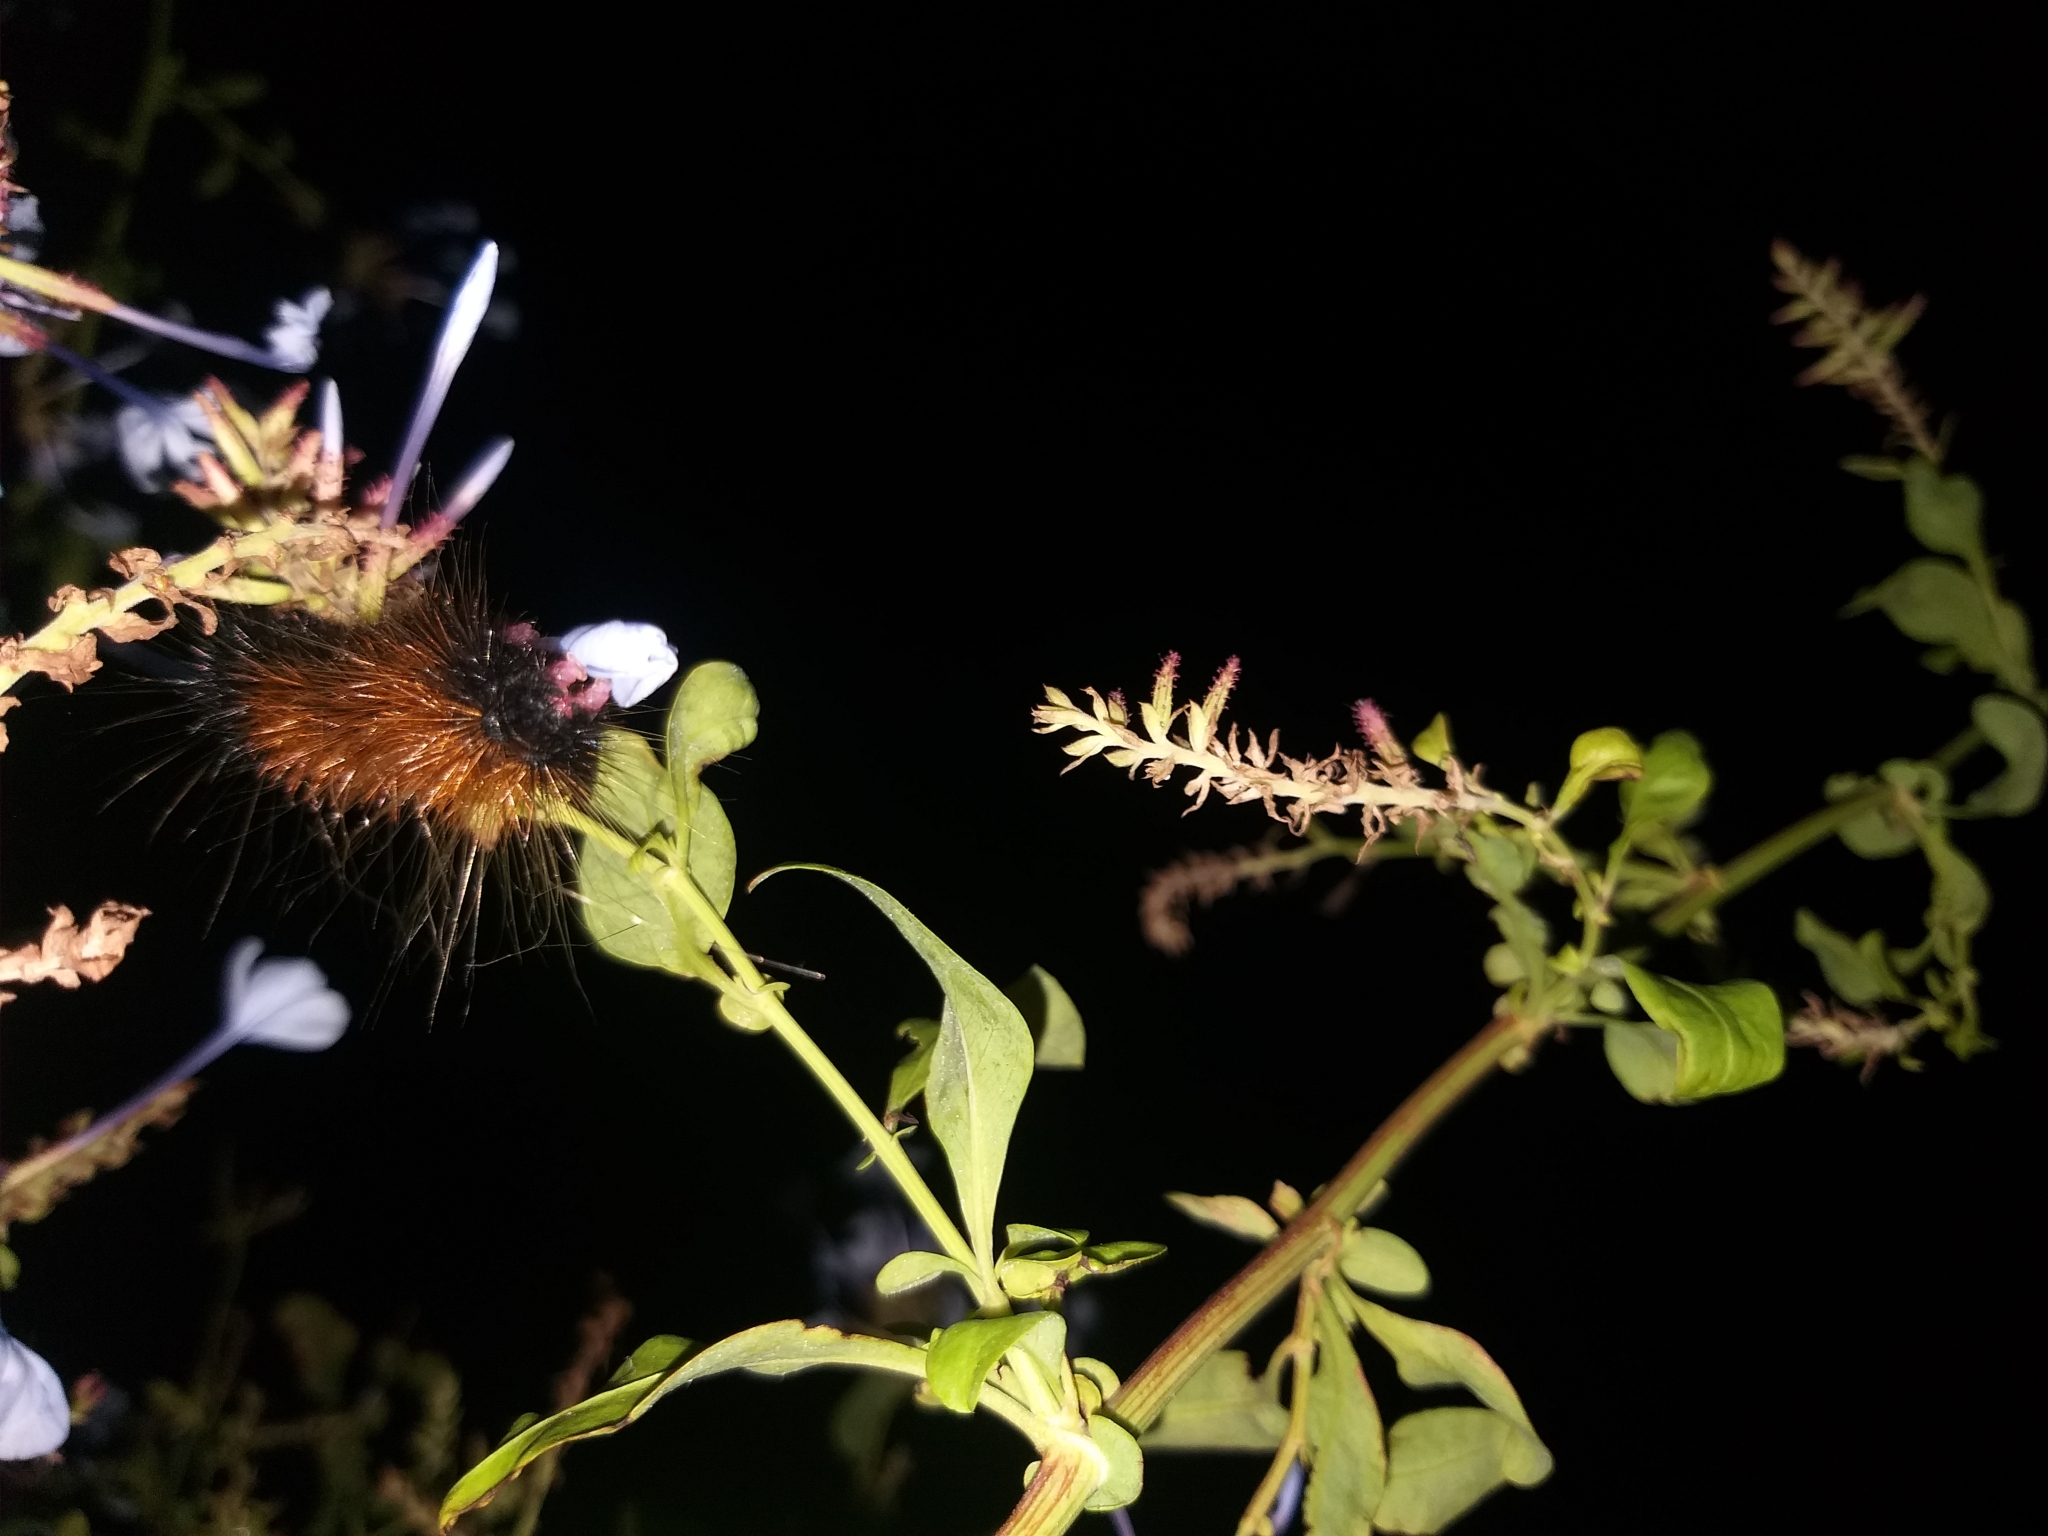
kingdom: Animalia
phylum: Arthropoda
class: Insecta
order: Lepidoptera
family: Erebidae
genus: Rhodogastria
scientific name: Rhodogastria amasis
